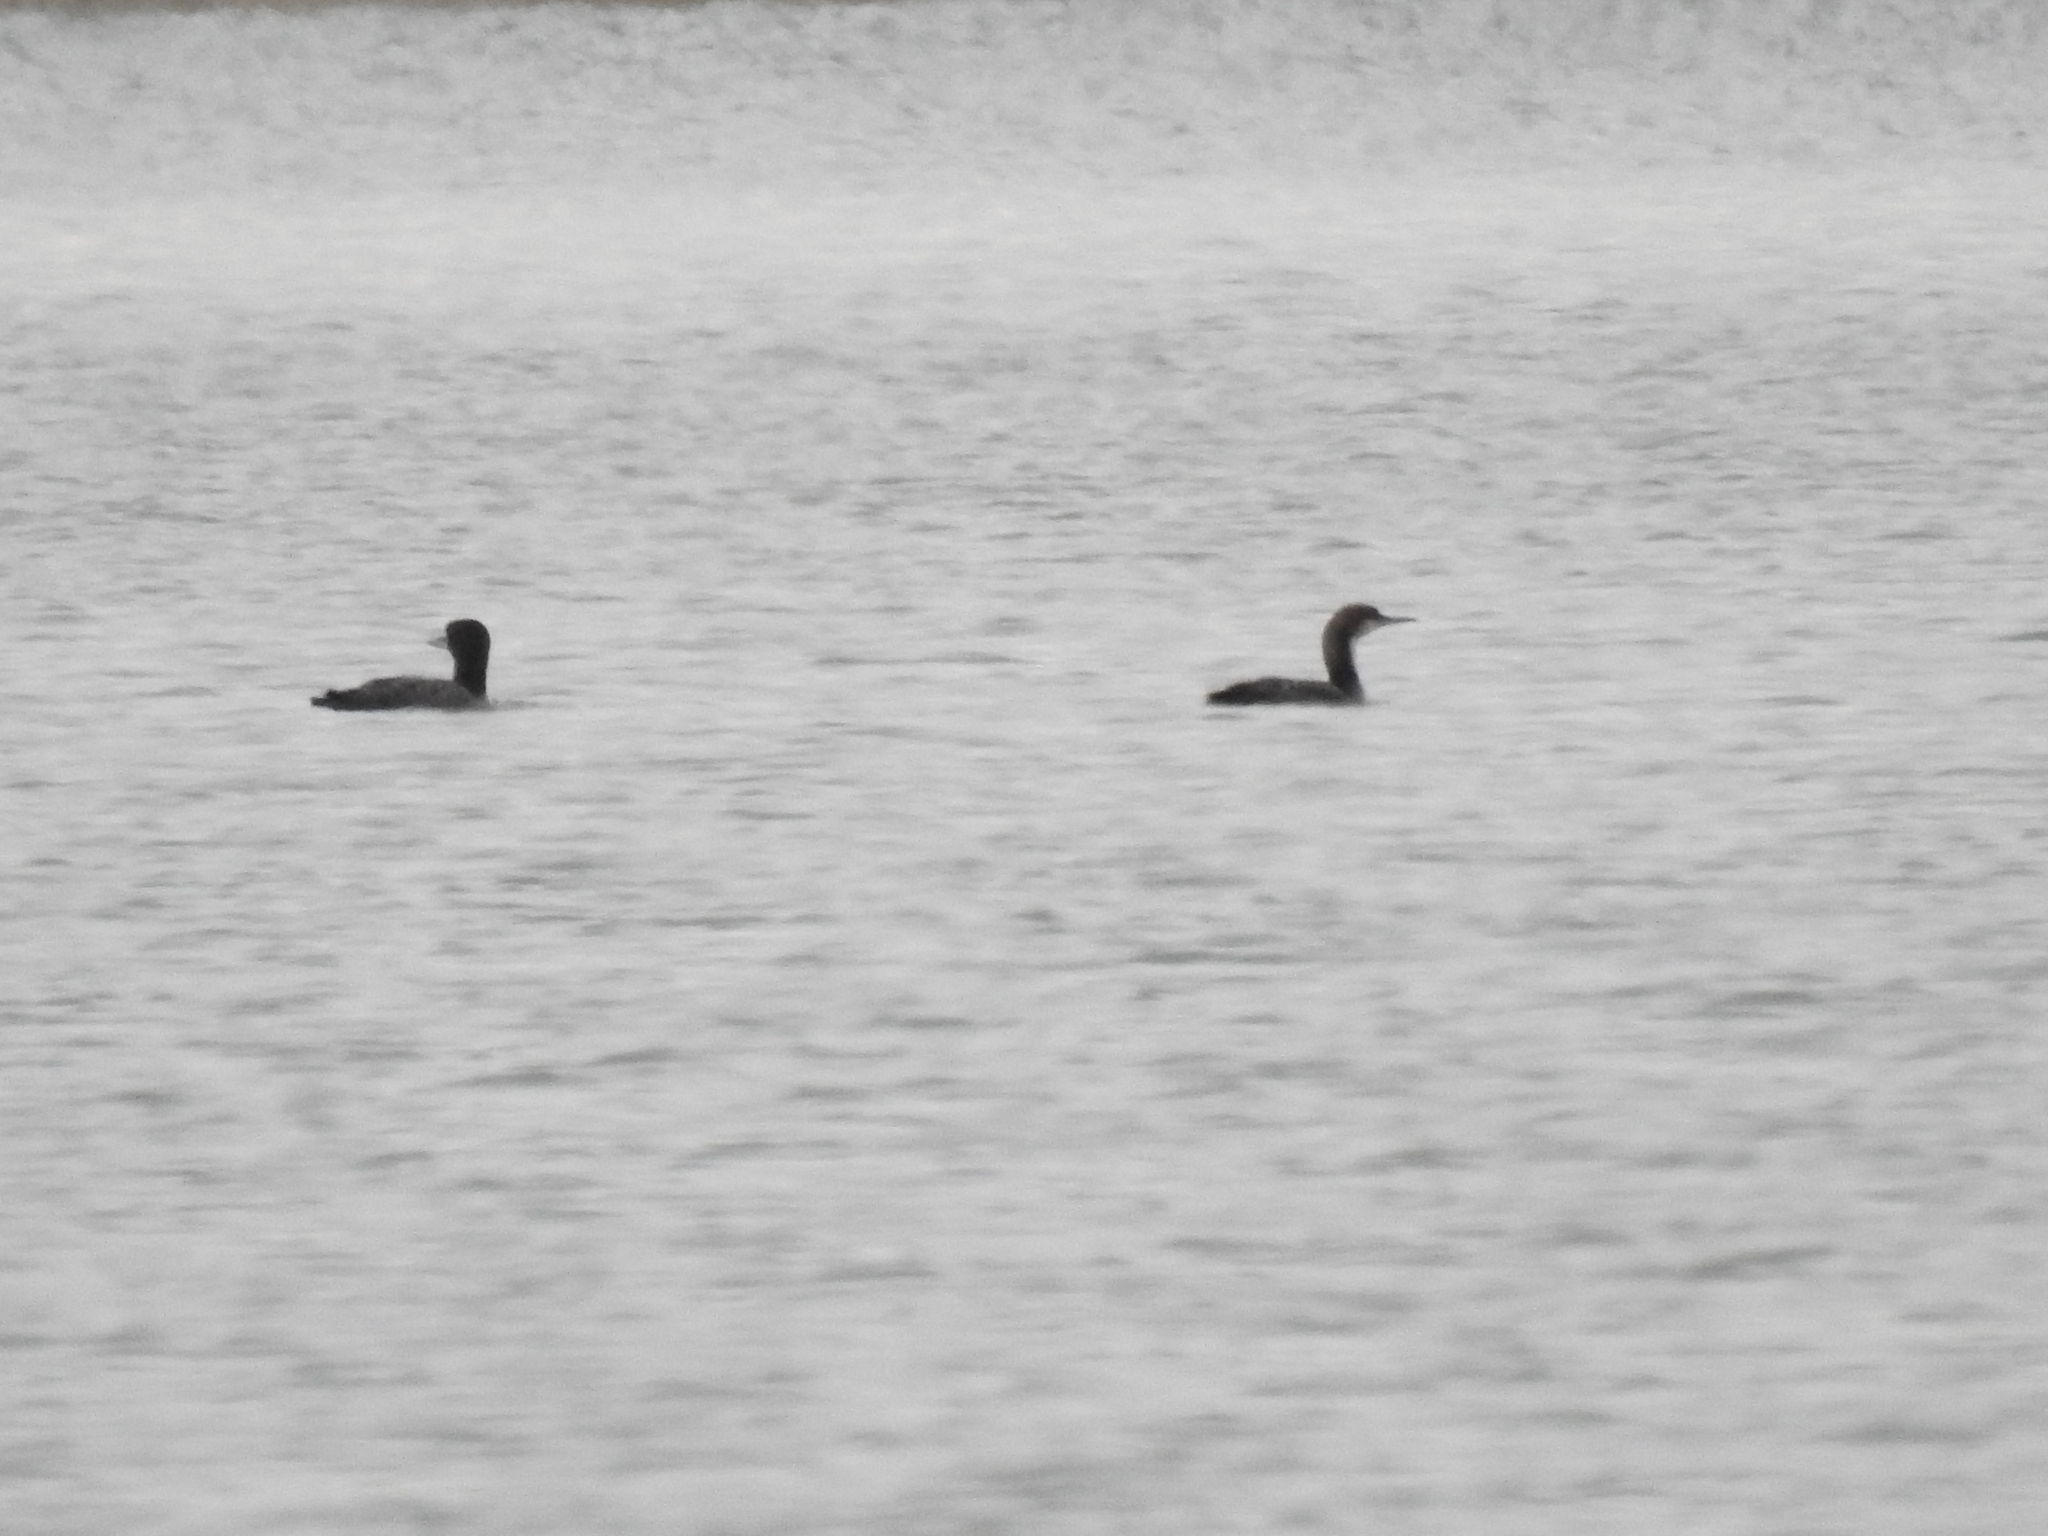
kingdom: Animalia
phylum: Chordata
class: Aves
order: Gaviiformes
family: Gaviidae
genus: Gavia
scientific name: Gavia pacifica
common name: Pacific loon
